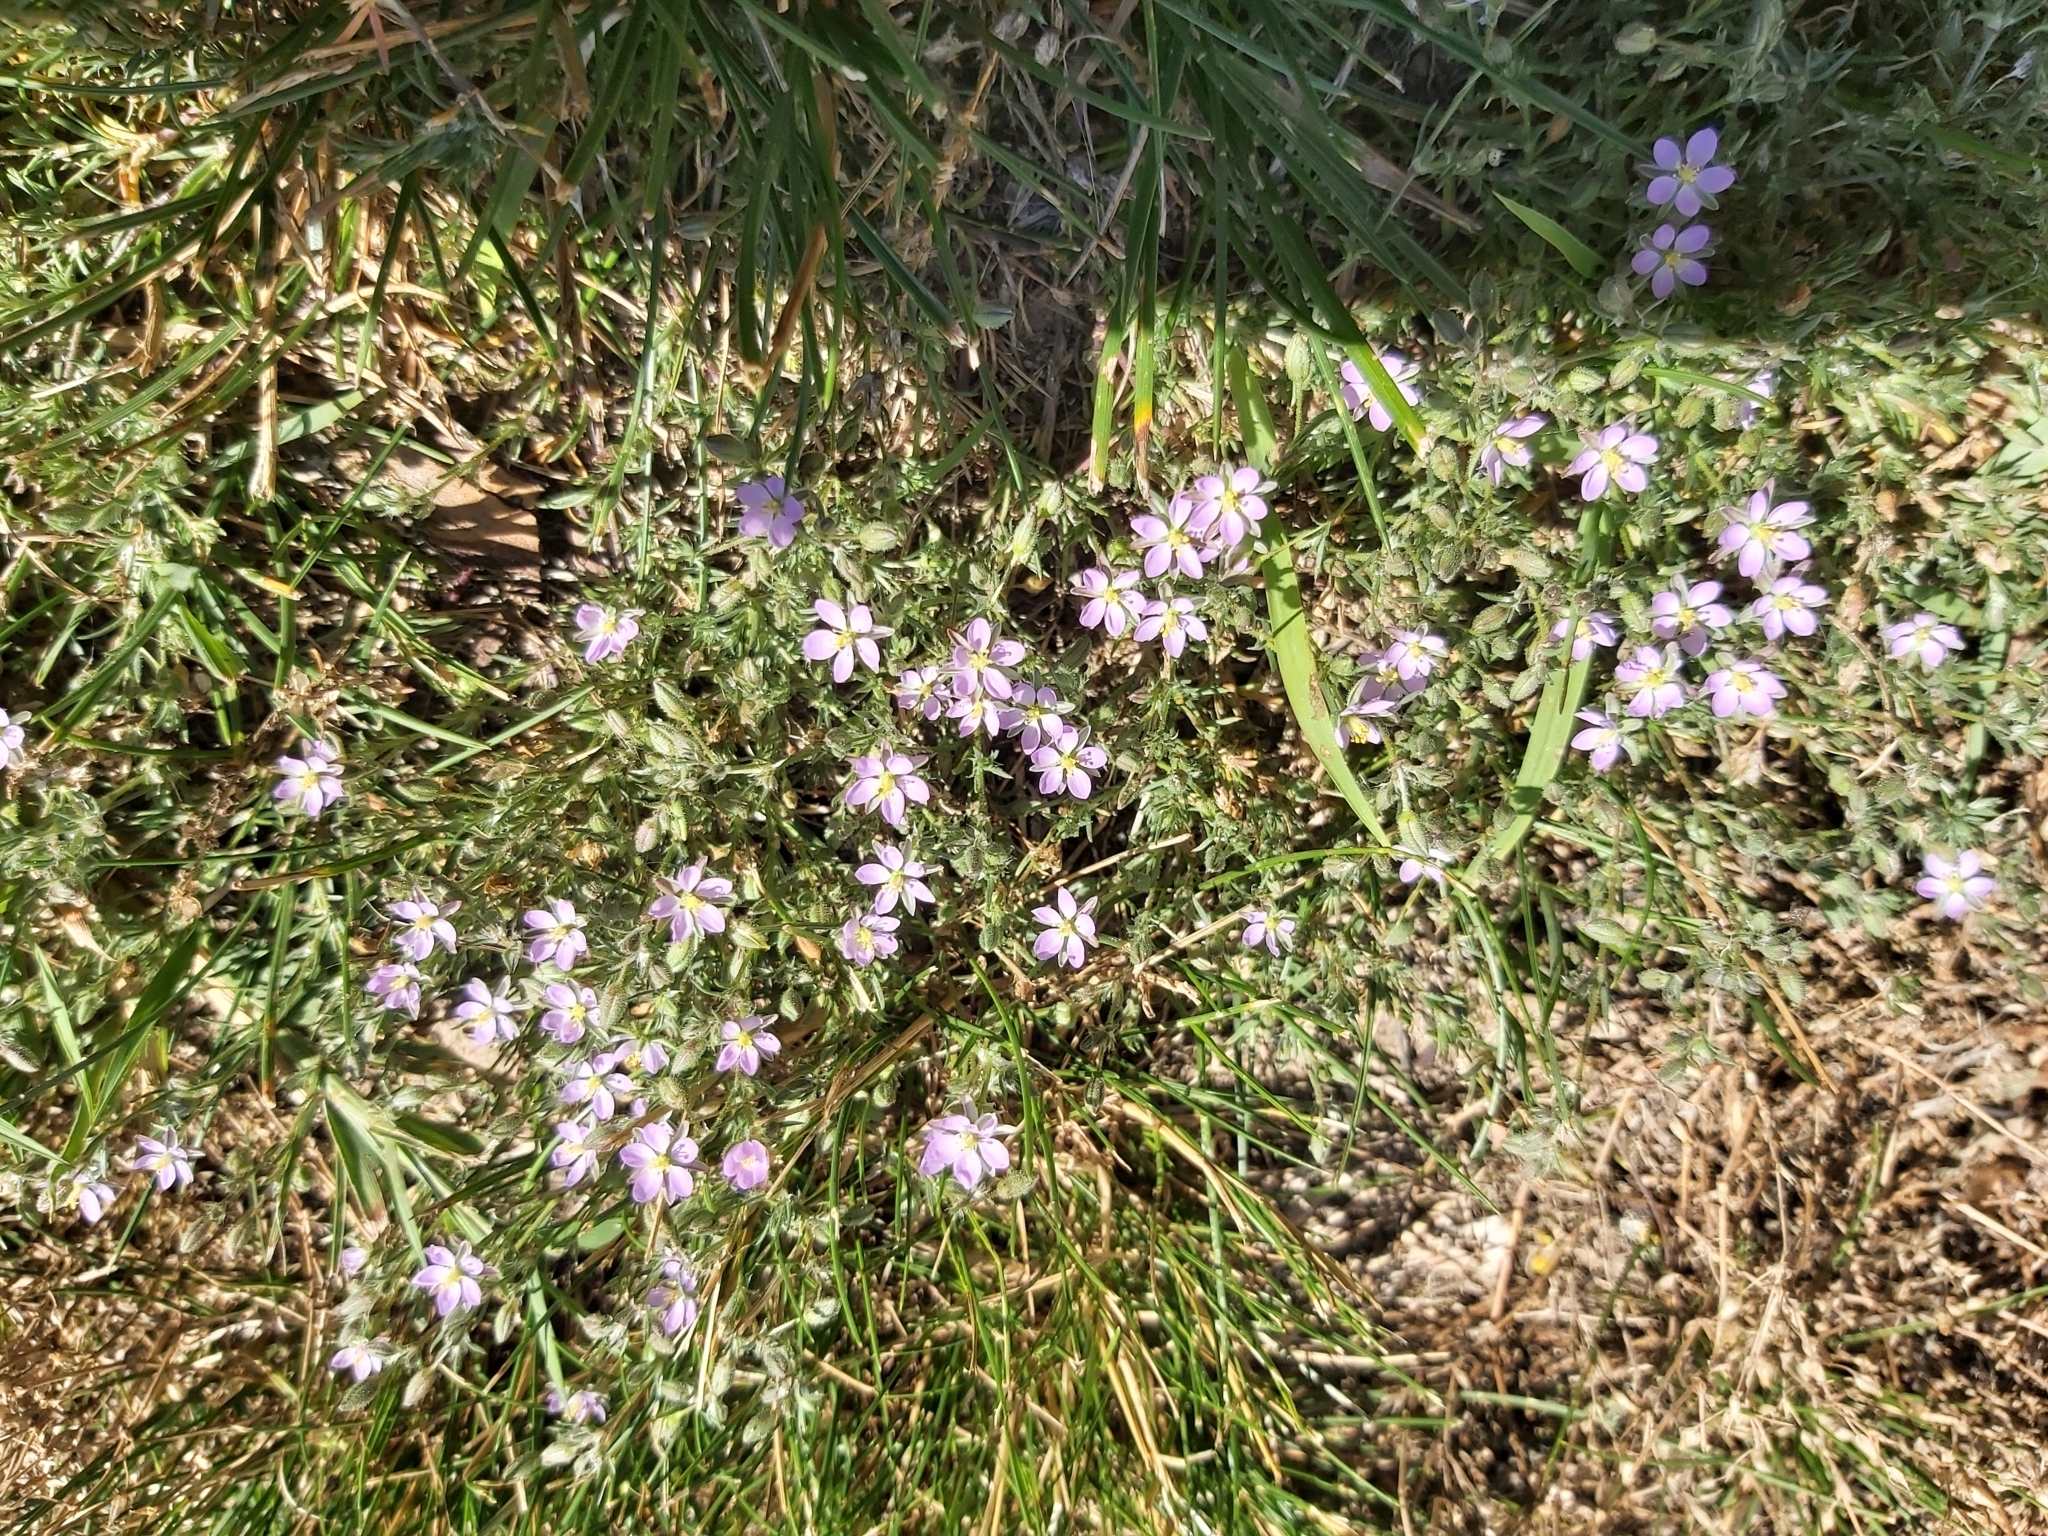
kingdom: Plantae
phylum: Tracheophyta
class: Magnoliopsida
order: Caryophyllales
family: Caryophyllaceae
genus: Spergularia
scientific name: Spergularia rubra
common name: Red sand-spurrey
